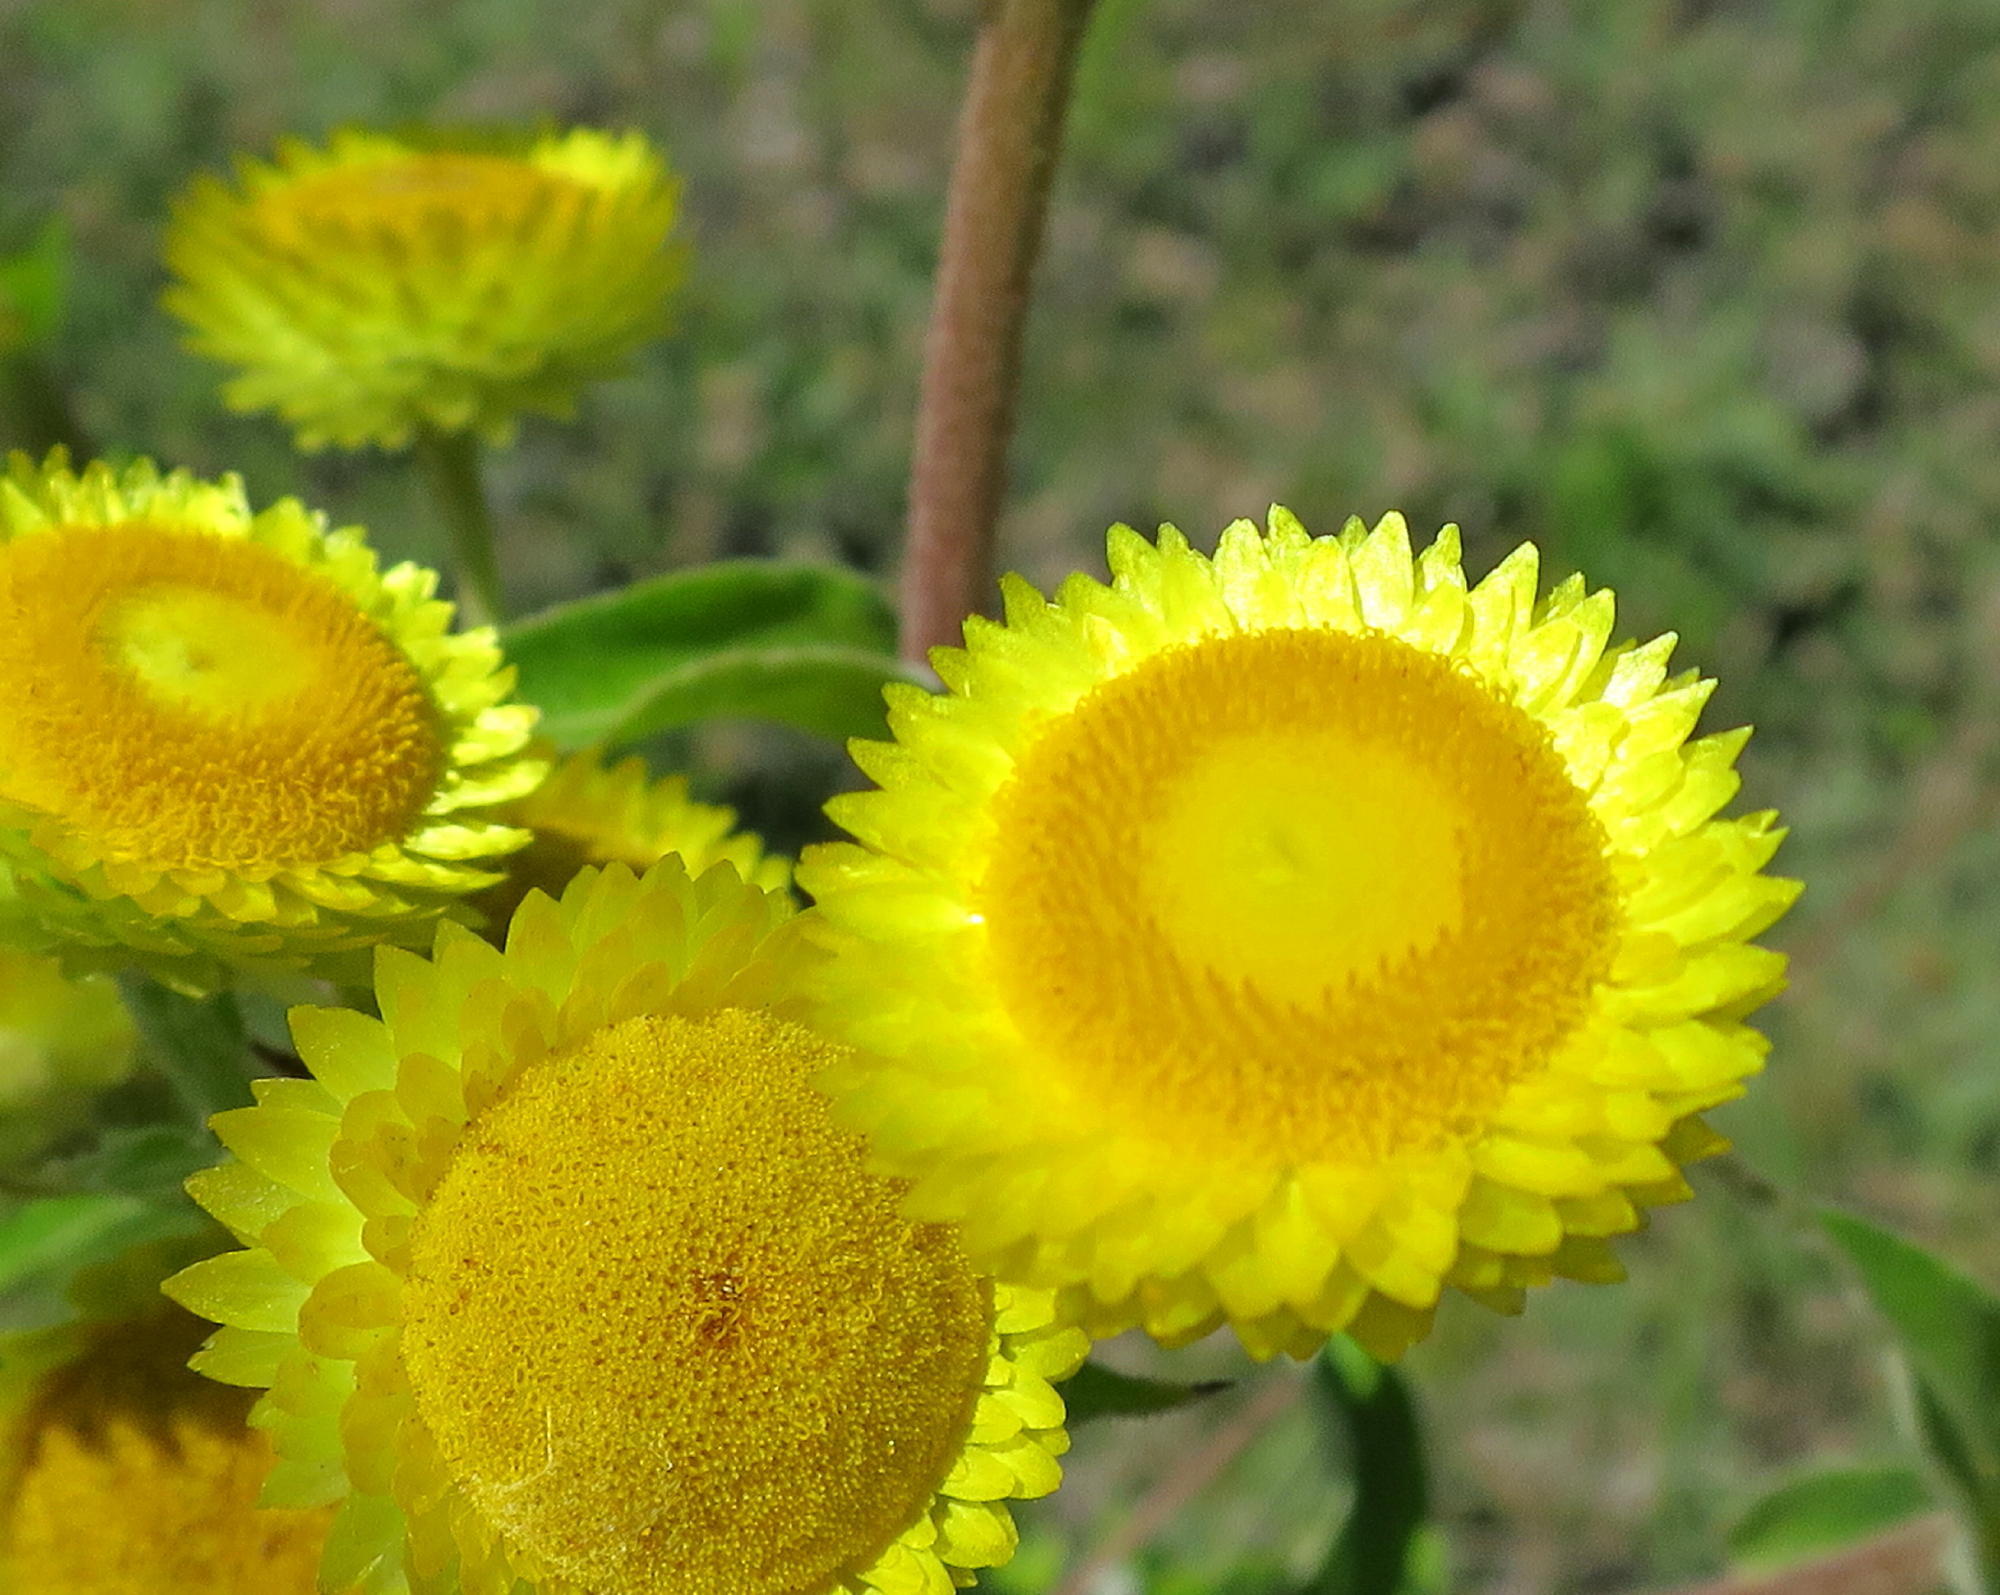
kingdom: Plantae
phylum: Tracheophyta
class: Magnoliopsida
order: Asterales
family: Asteraceae
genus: Helichrysum
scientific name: Helichrysum foetidum
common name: Stinking everlasting
